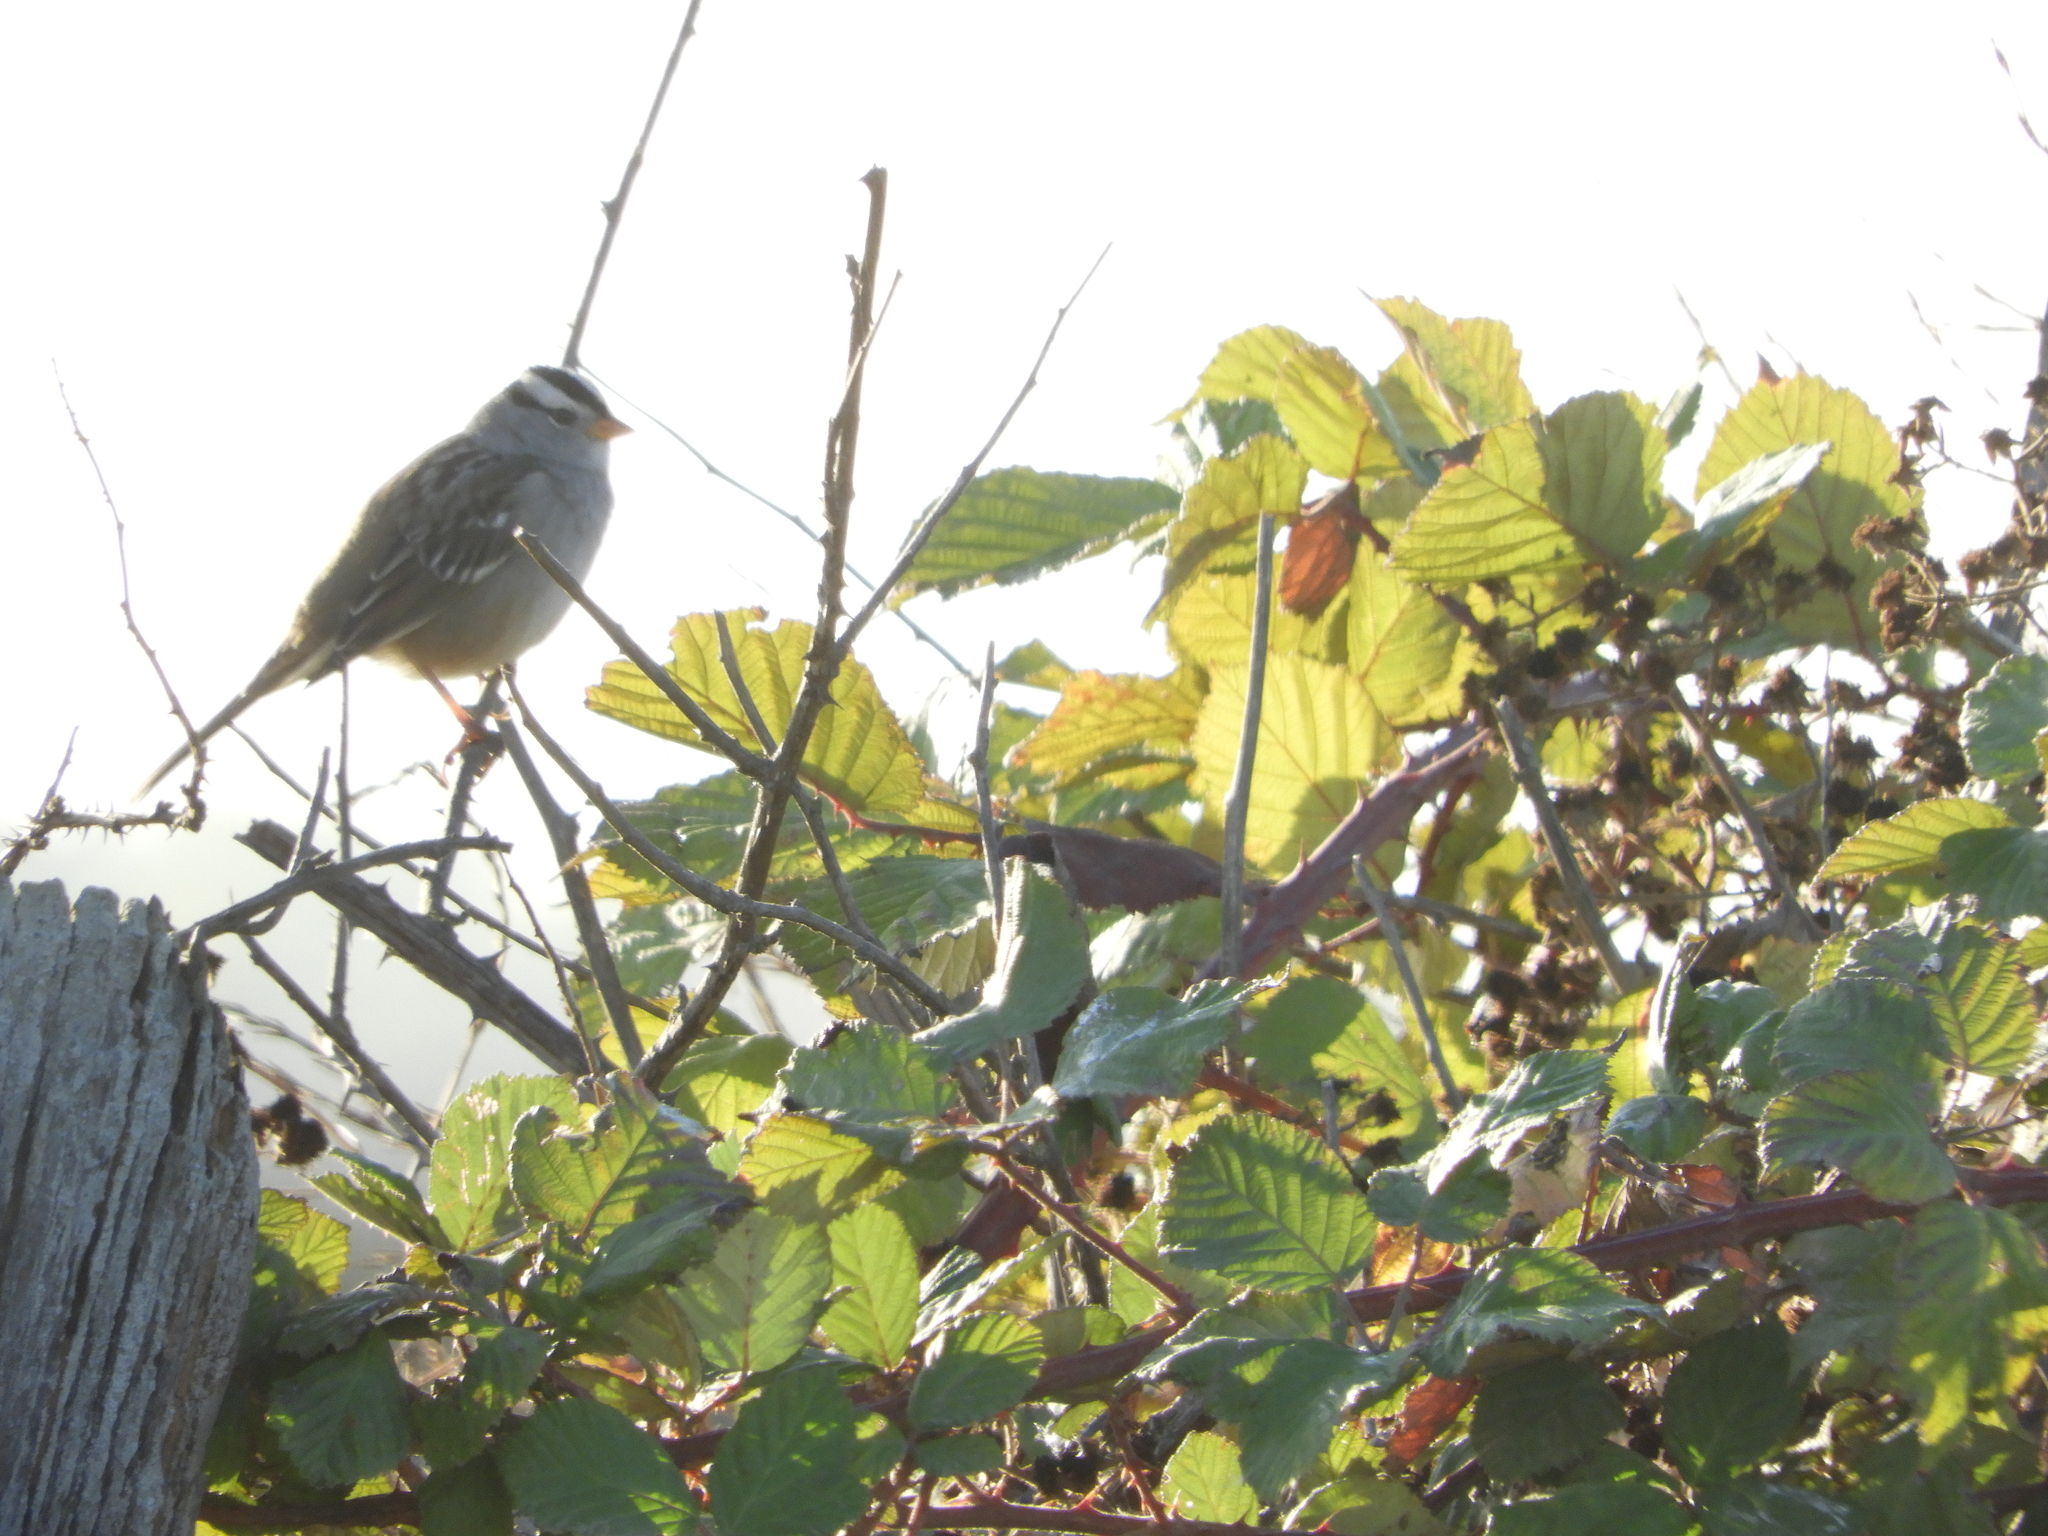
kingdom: Animalia
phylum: Chordata
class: Aves
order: Passeriformes
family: Passerellidae
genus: Zonotrichia
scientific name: Zonotrichia leucophrys
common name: White-crowned sparrow
